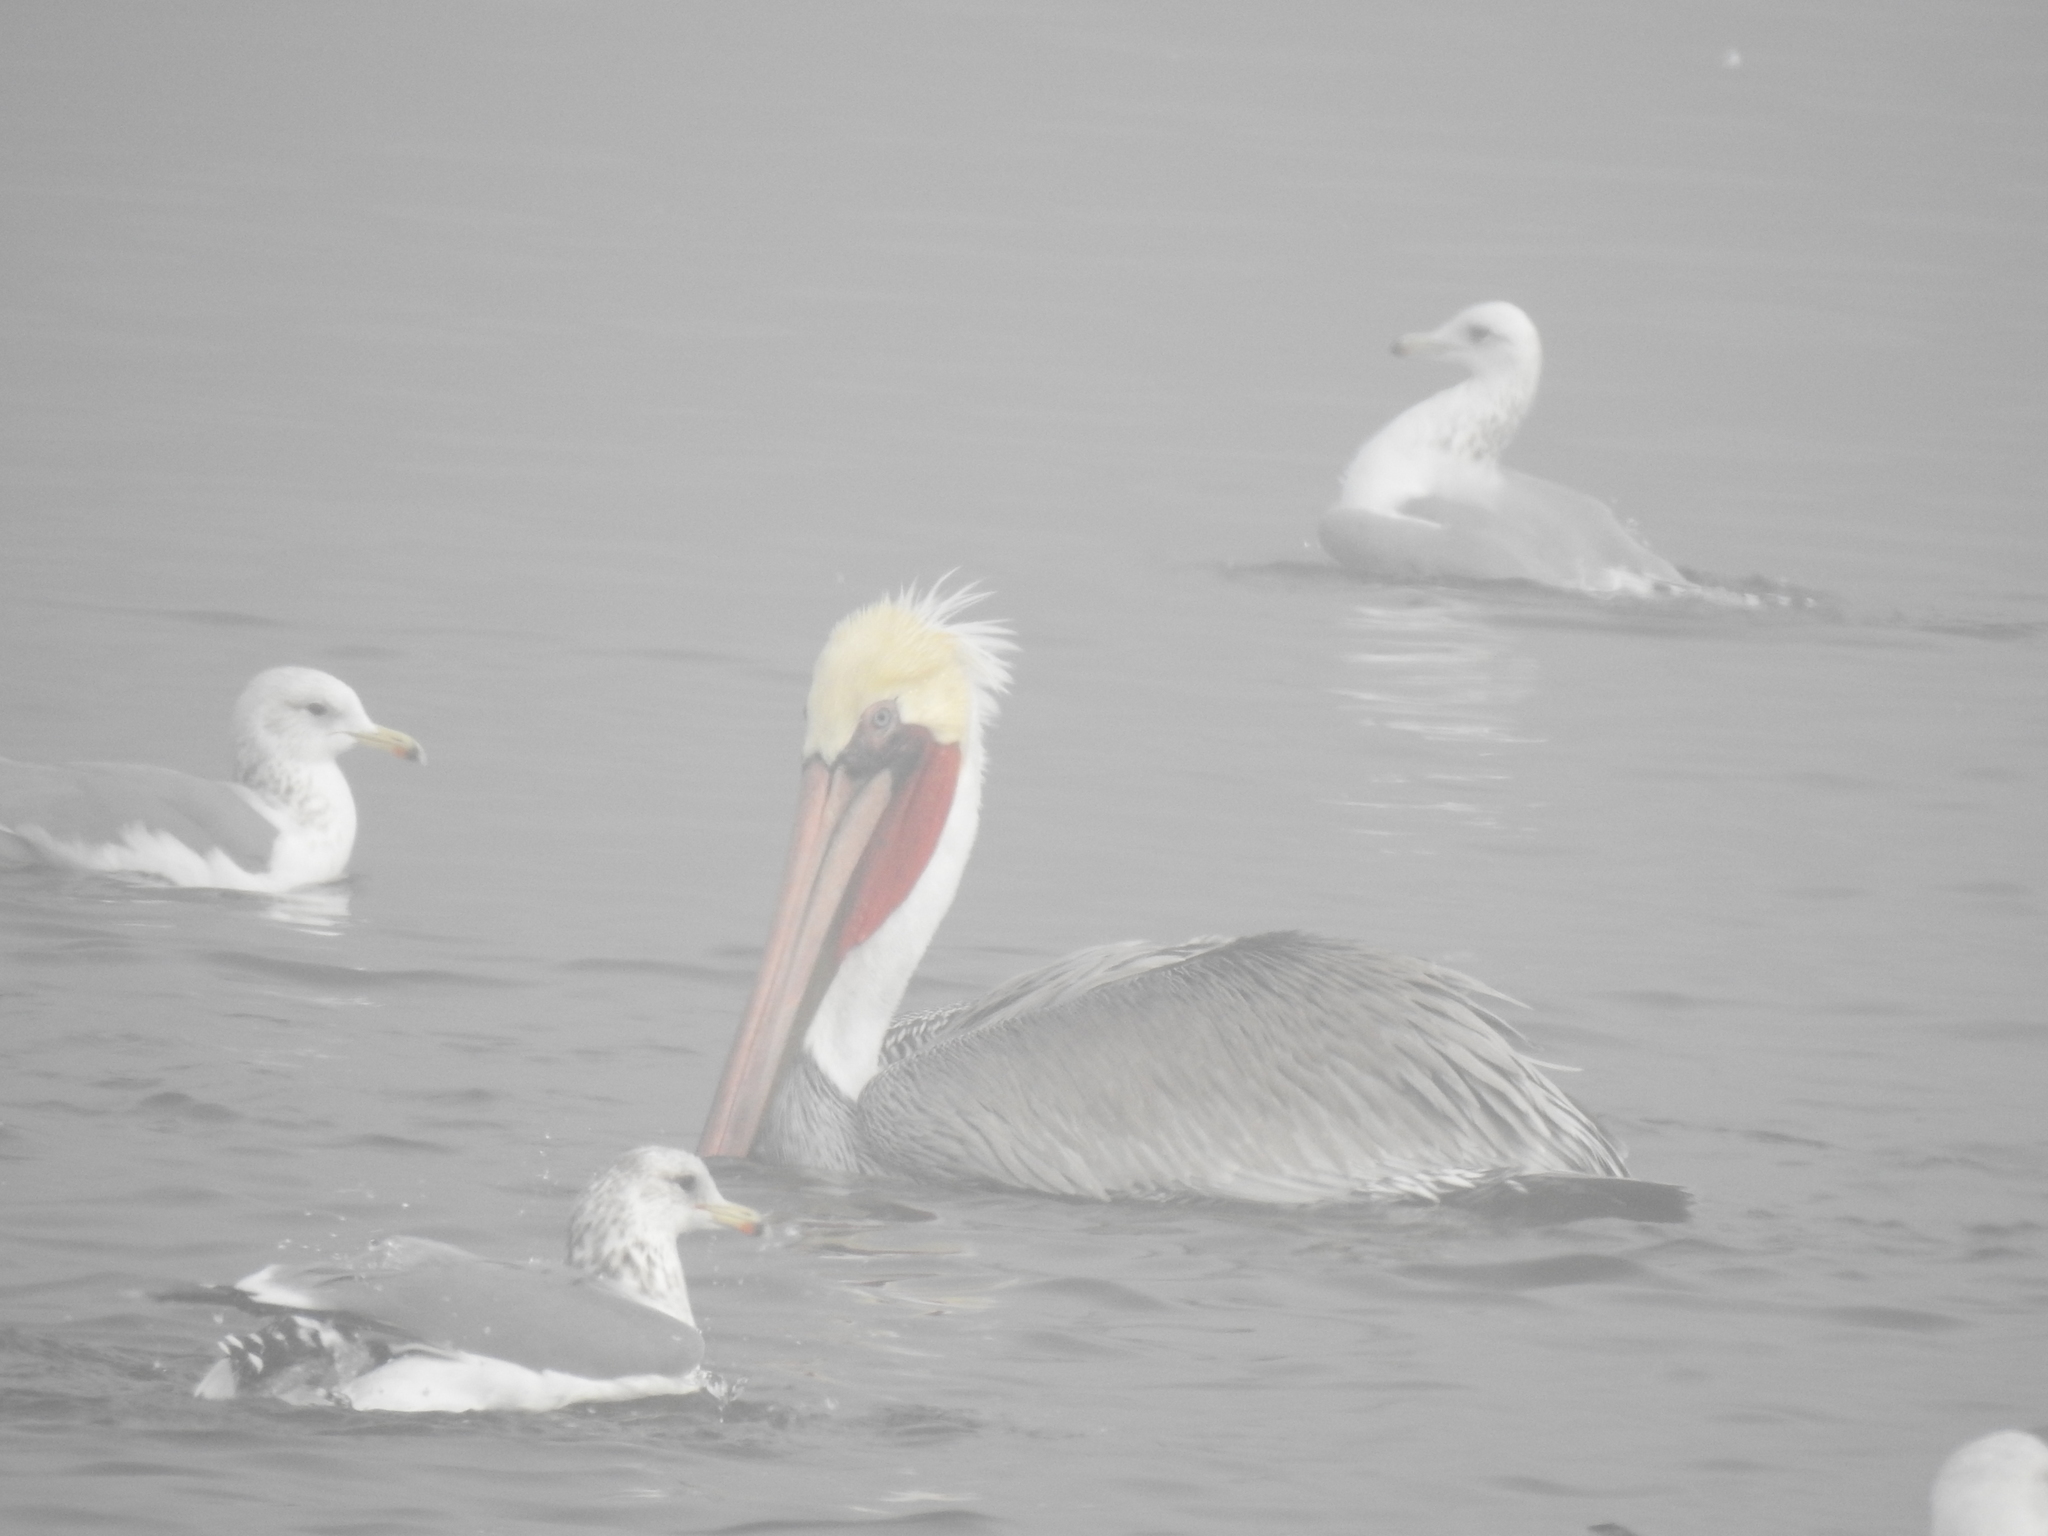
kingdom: Animalia
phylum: Chordata
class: Aves
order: Pelecaniformes
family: Pelecanidae
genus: Pelecanus
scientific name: Pelecanus occidentalis
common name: Brown pelican
